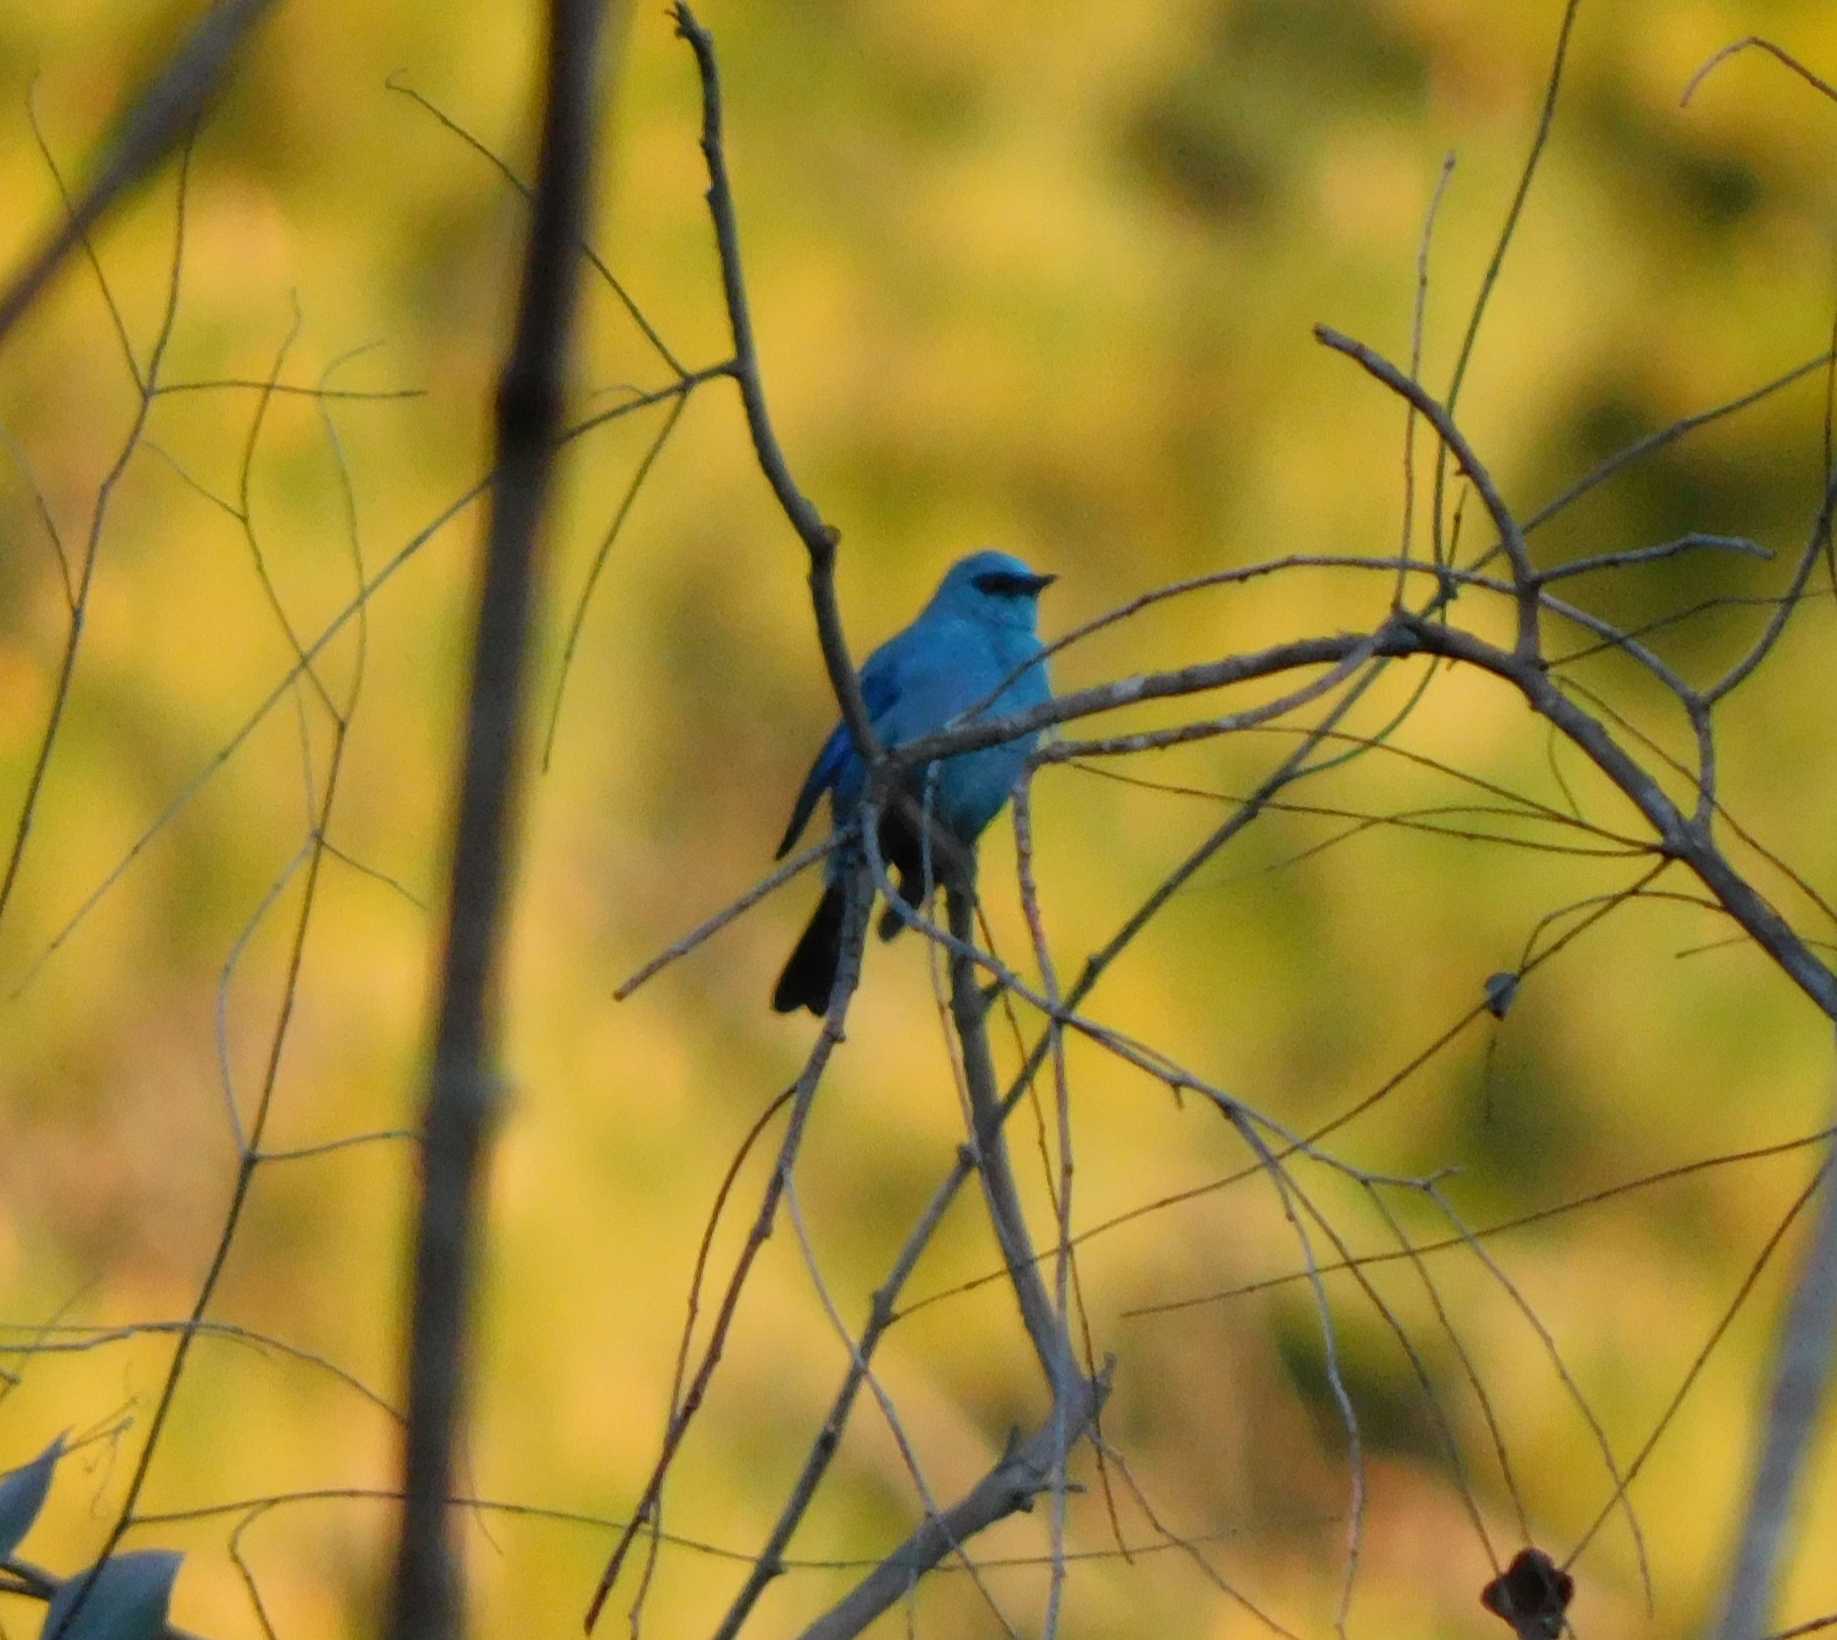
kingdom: Animalia
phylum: Chordata
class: Aves
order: Passeriformes
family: Muscicapidae
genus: Eumyias
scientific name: Eumyias thalassinus
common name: Verditer flycatcher
